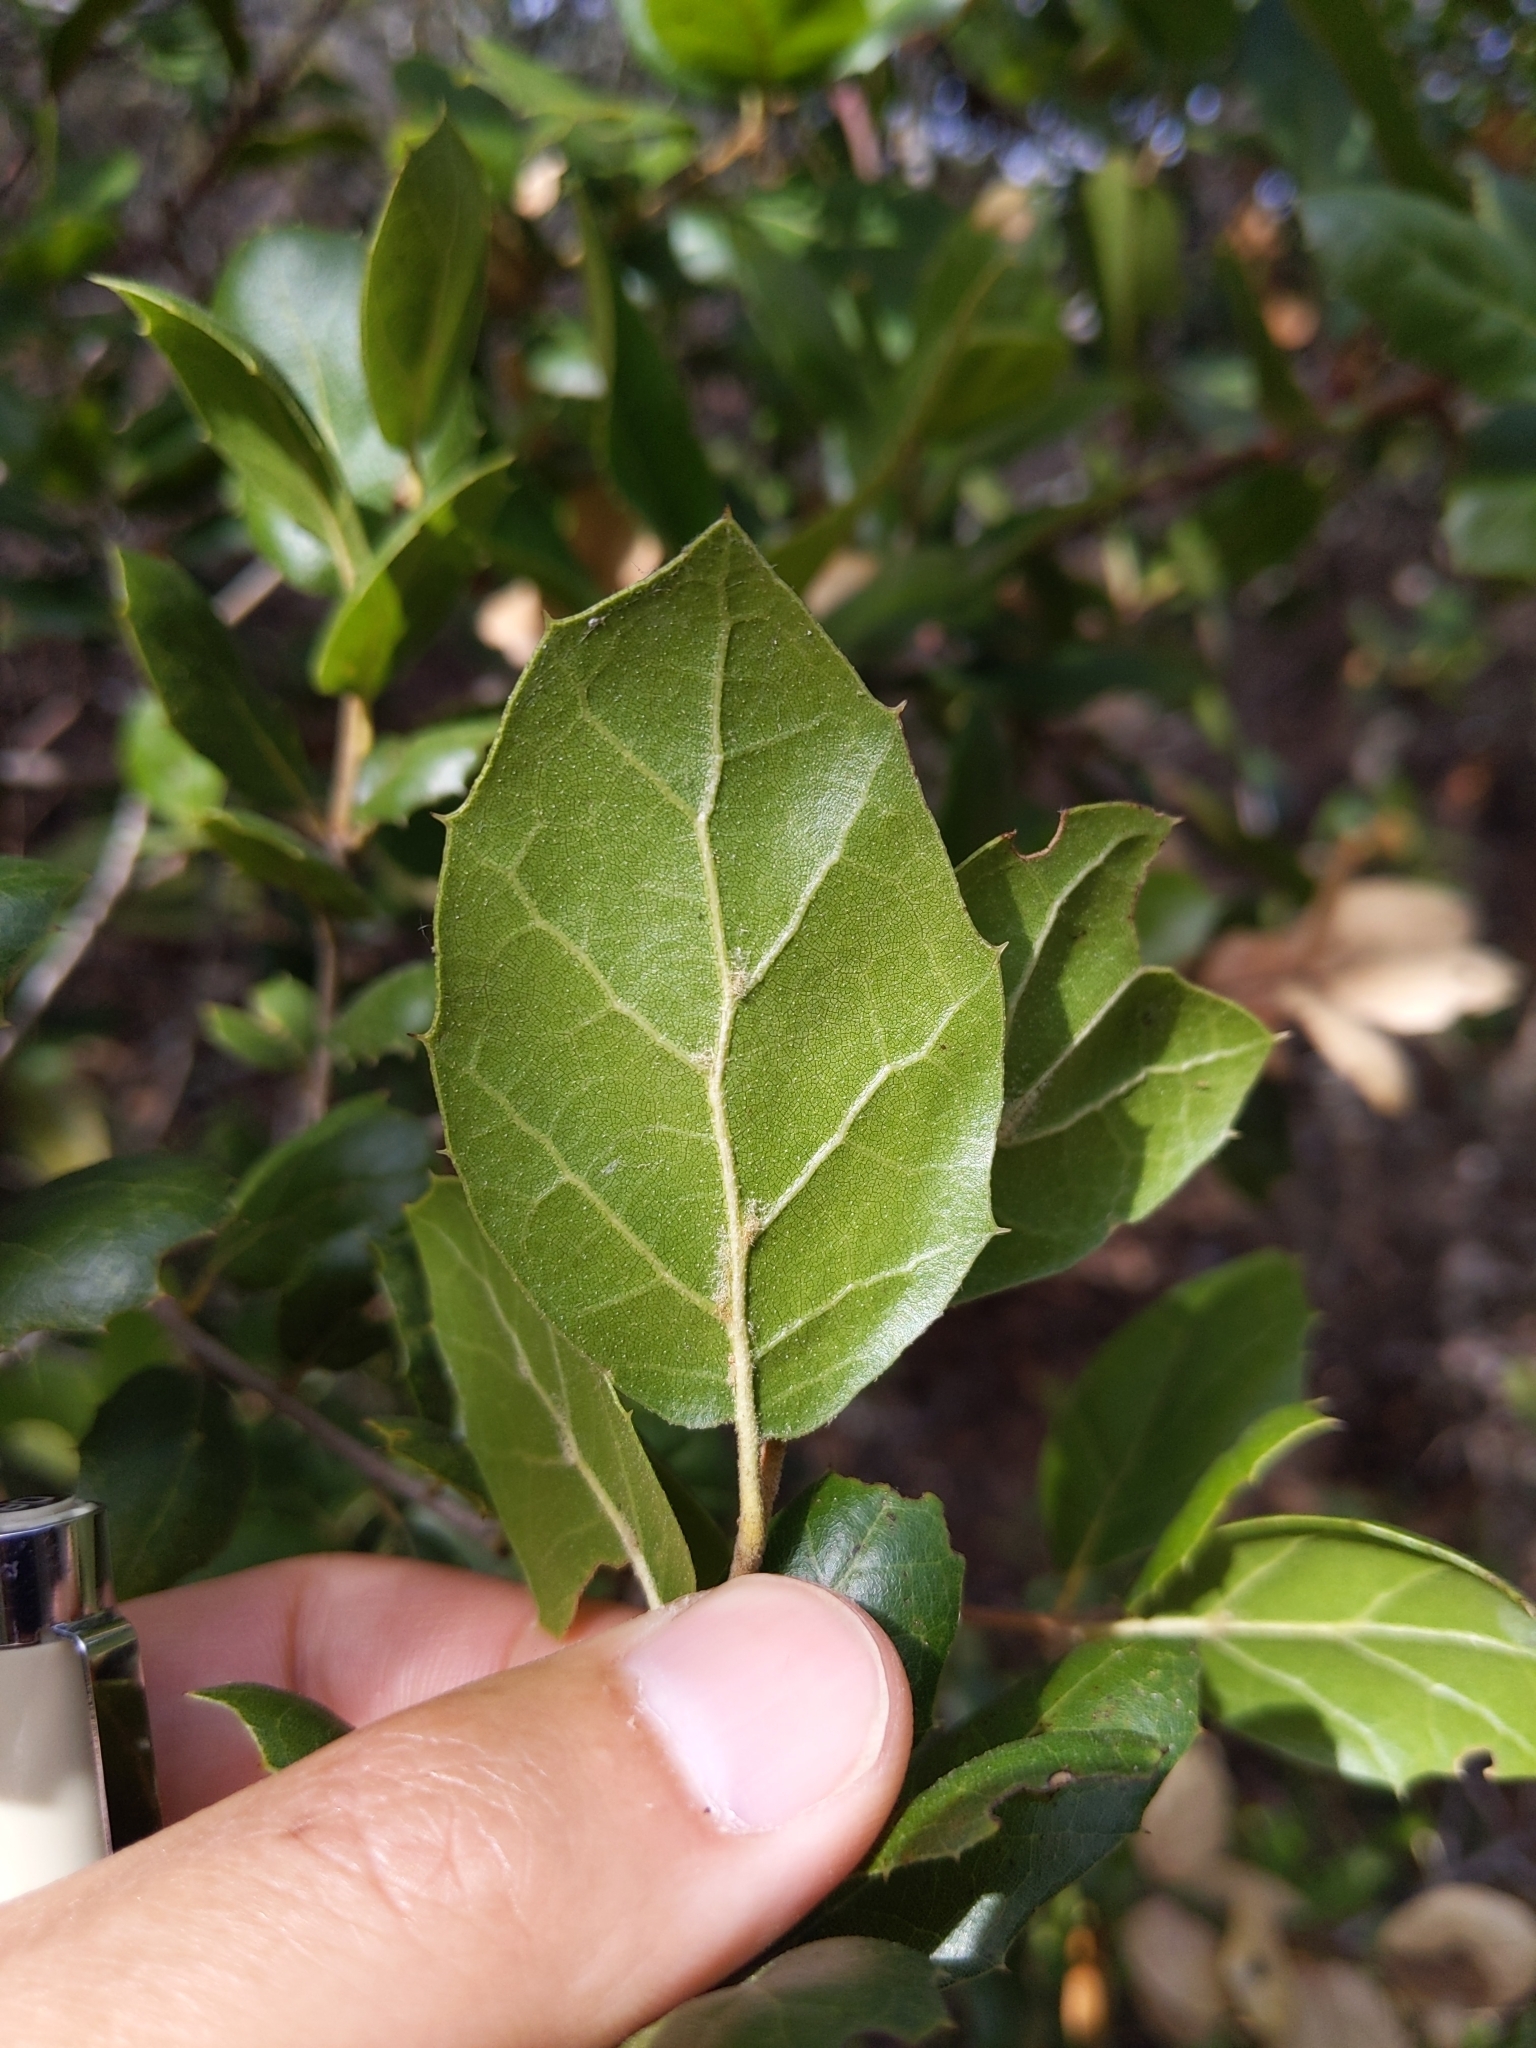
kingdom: Plantae
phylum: Tracheophyta
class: Magnoliopsida
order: Fagales
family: Fagaceae
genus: Quercus
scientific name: Quercus agrifolia
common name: California live oak
